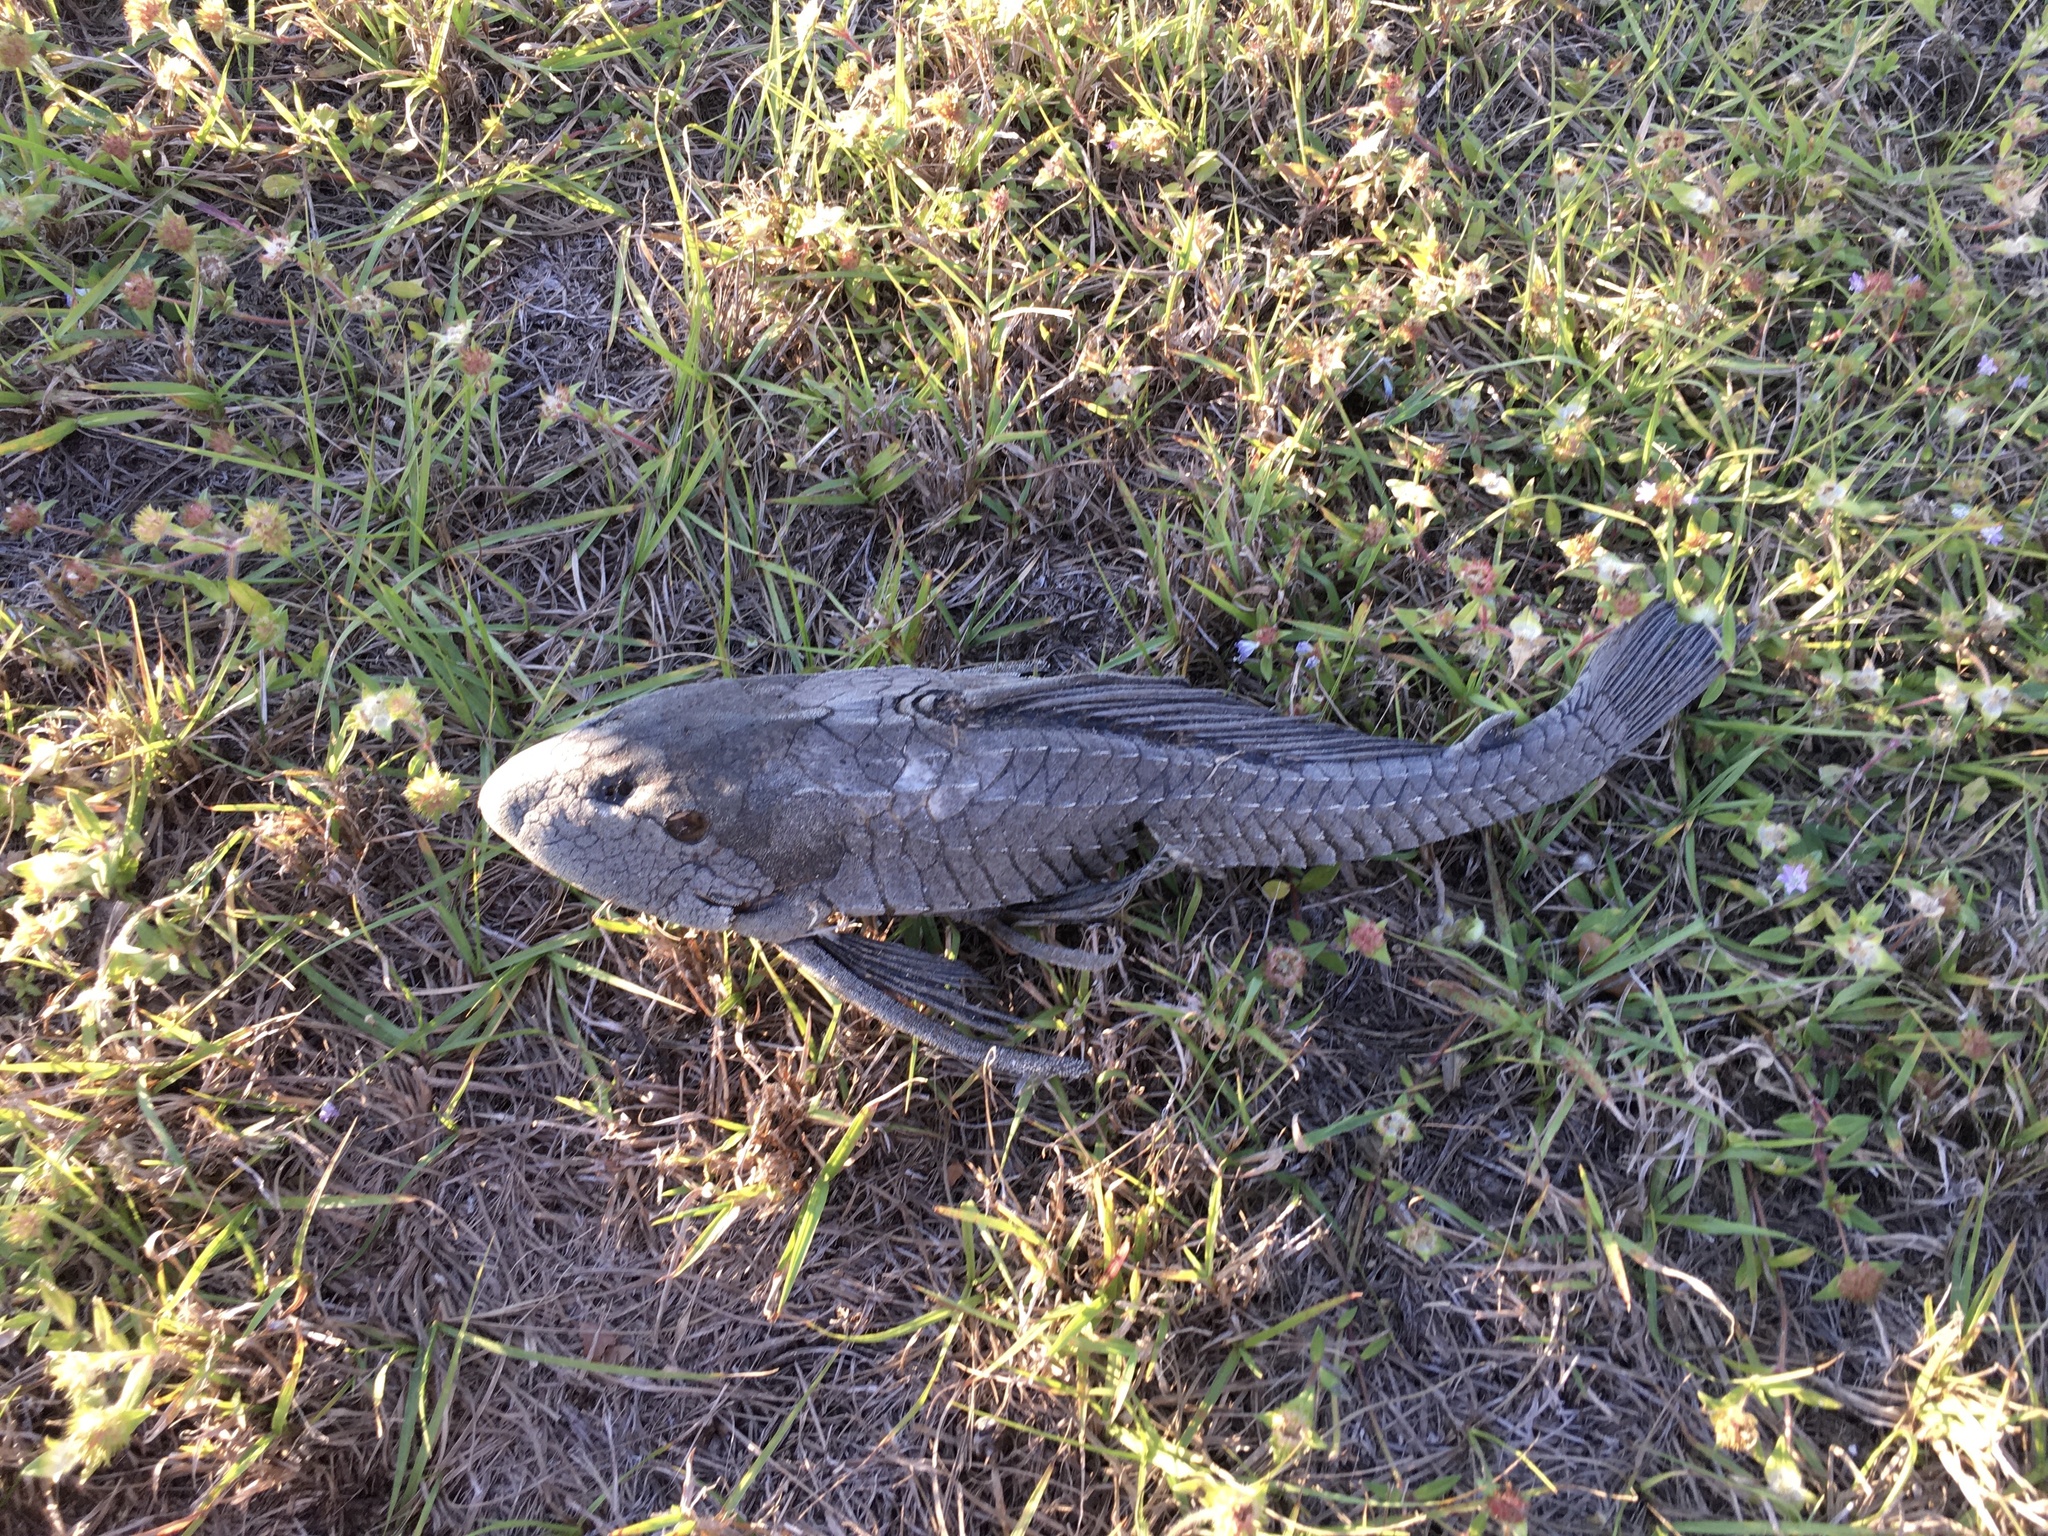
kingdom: Animalia
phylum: Chordata
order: Siluriformes
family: Loricariidae
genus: Pterygoplichthys
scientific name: Pterygoplichthys
